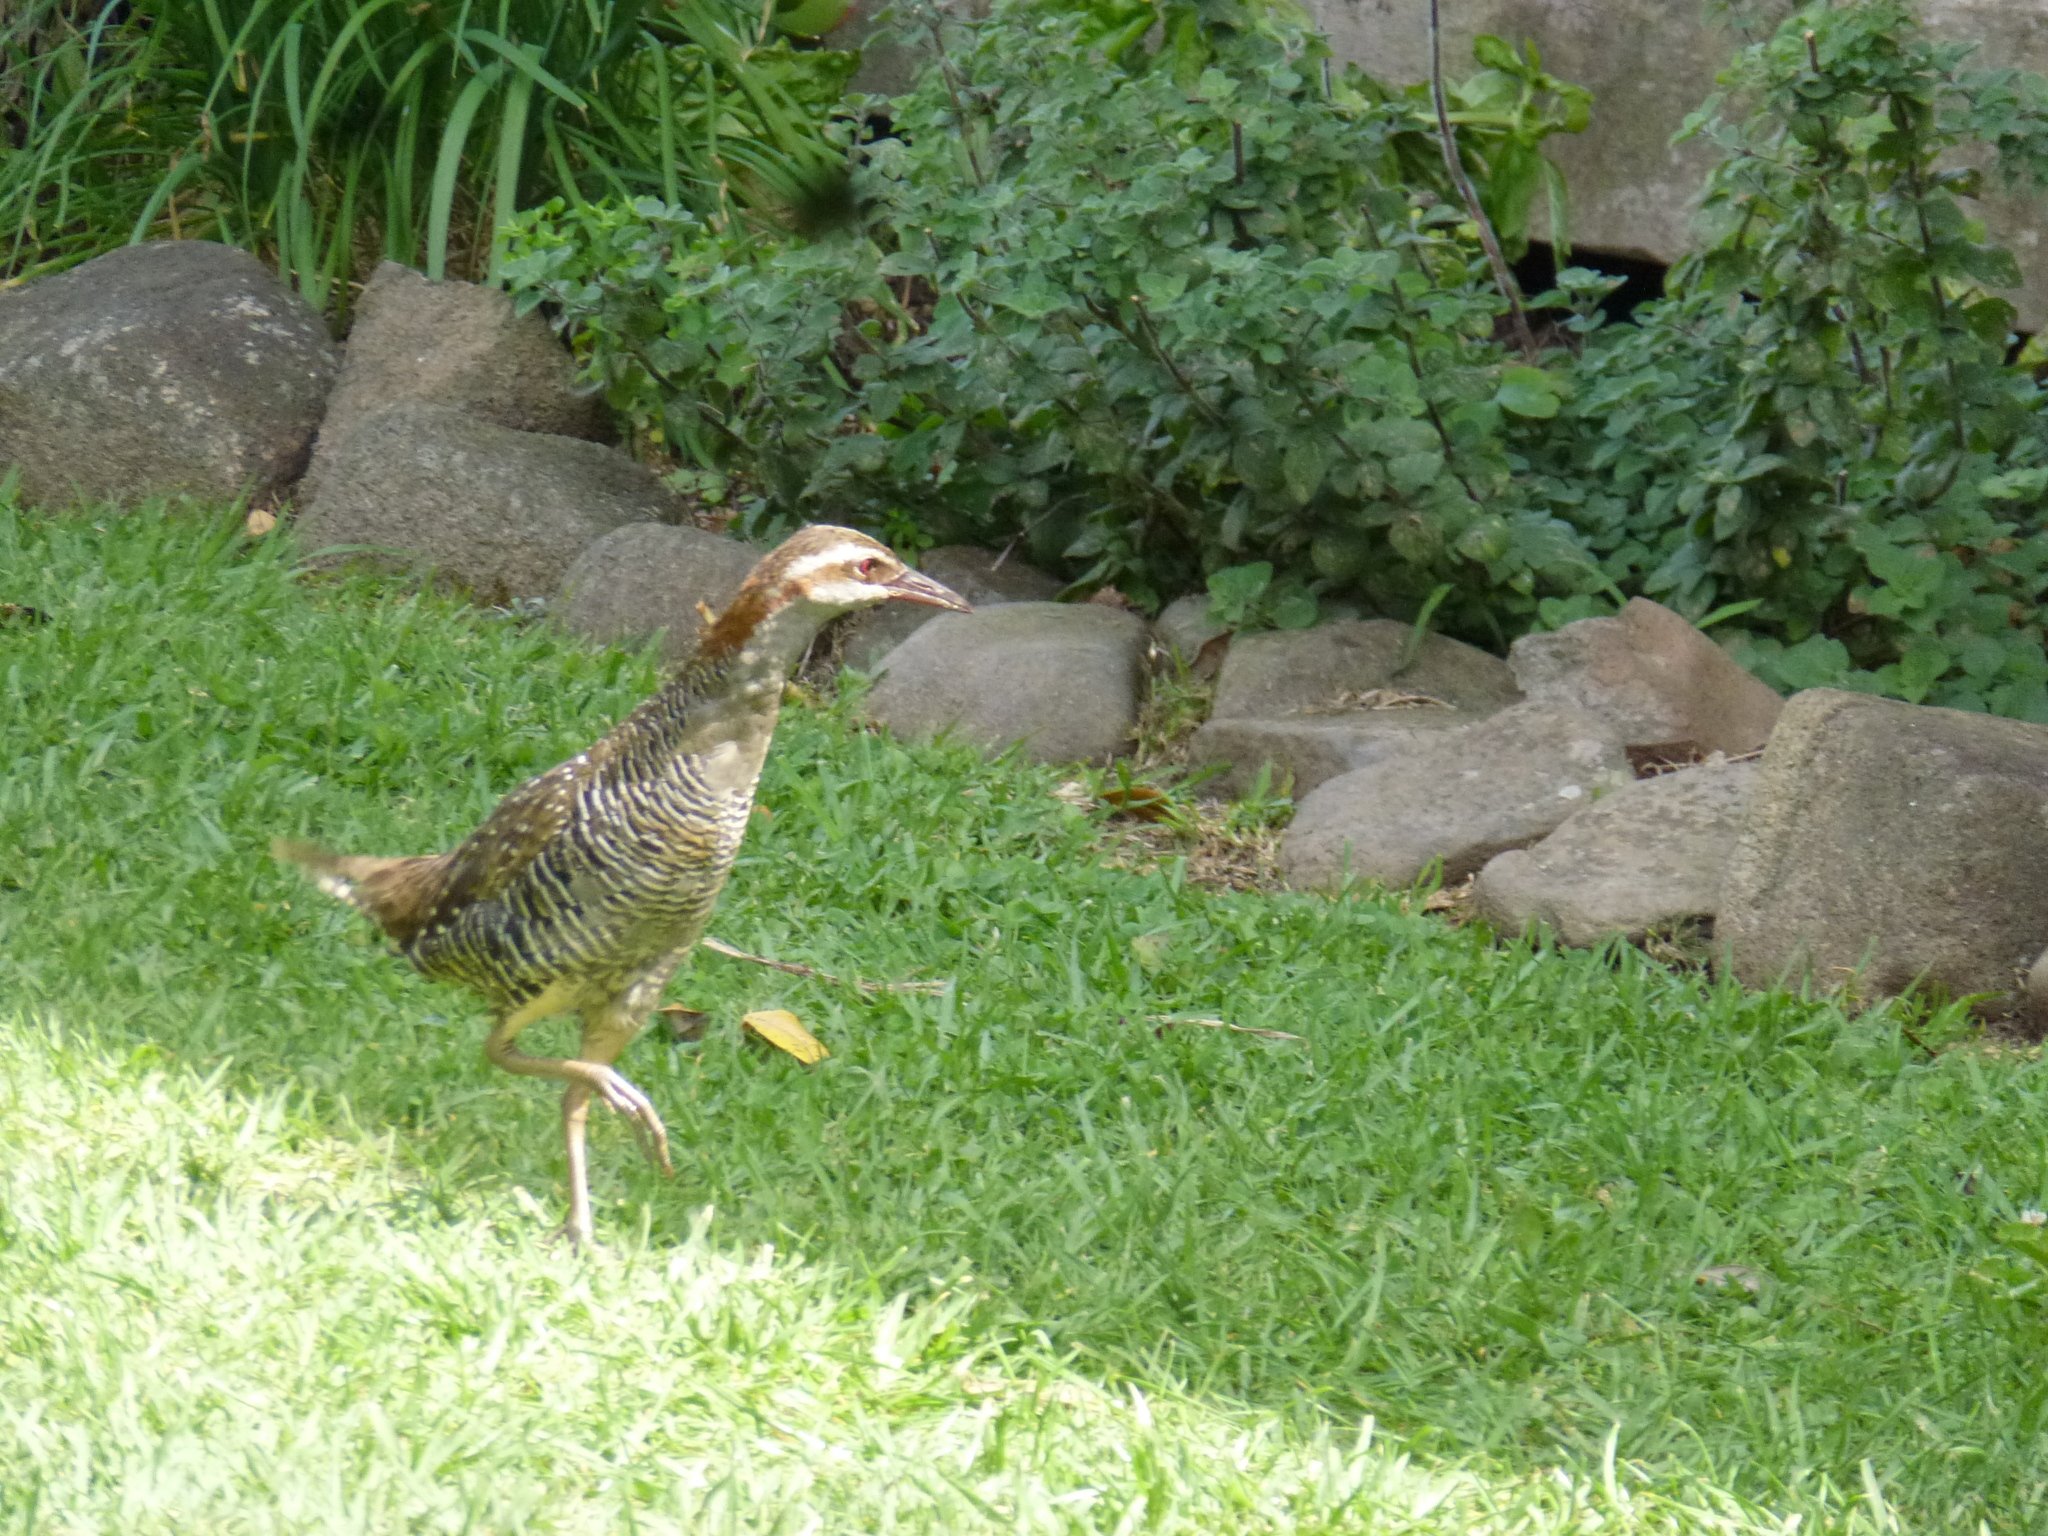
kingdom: Animalia
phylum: Chordata
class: Aves
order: Gruiformes
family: Rallidae
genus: Gallirallus
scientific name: Gallirallus philippensis
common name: Buff-banded rail
